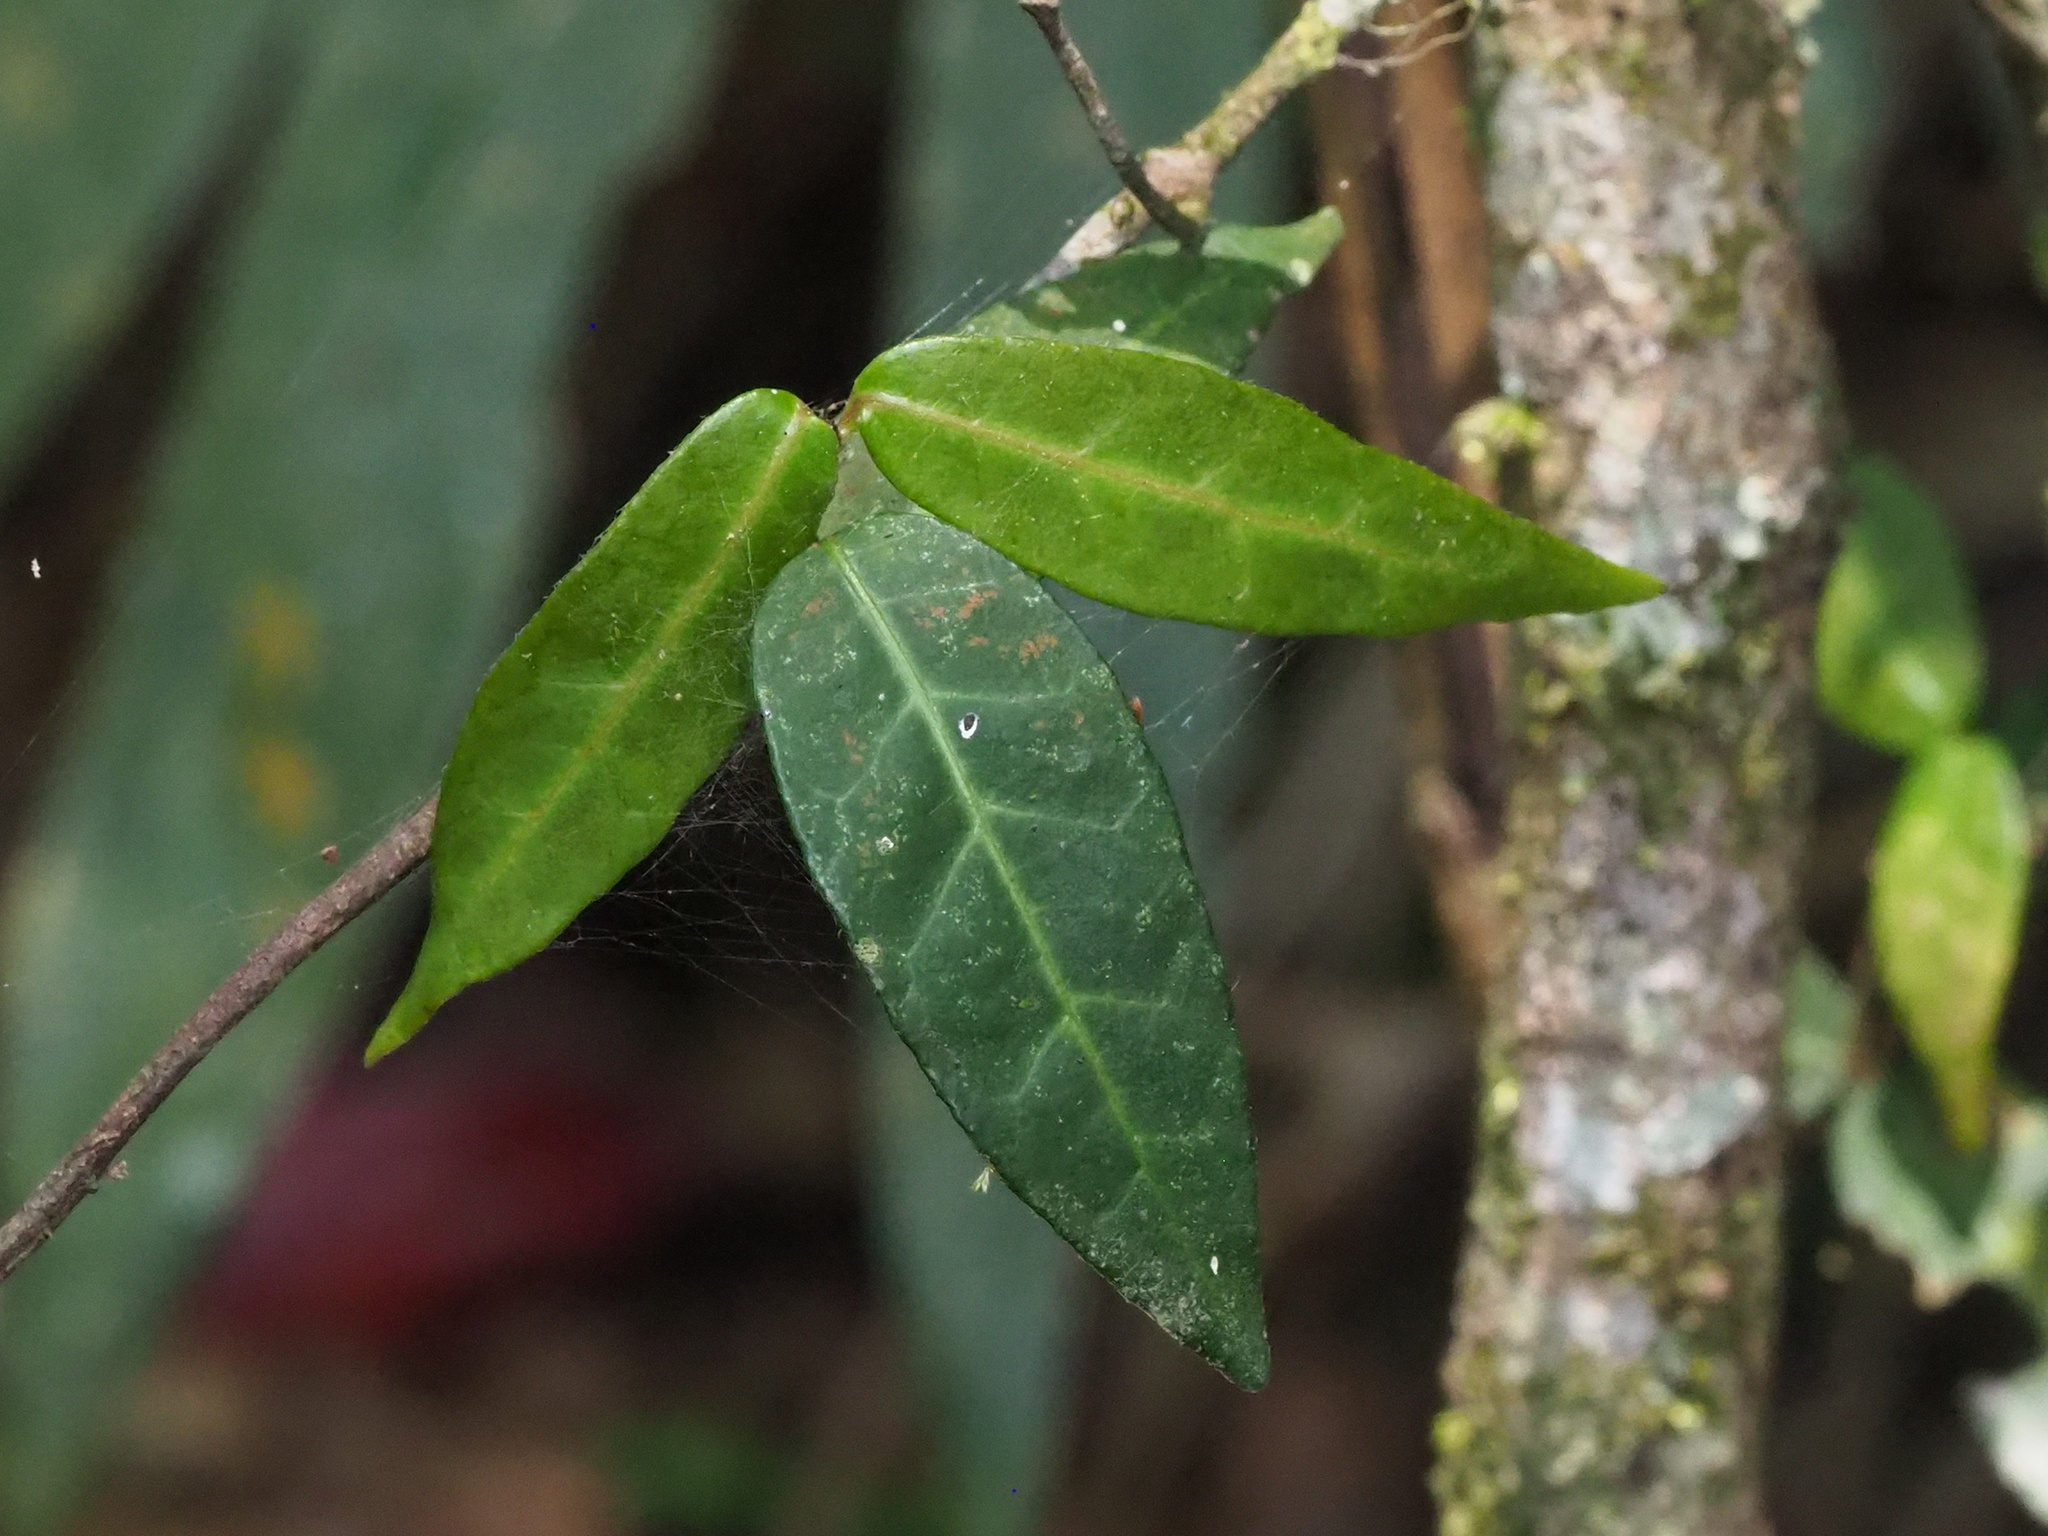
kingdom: Plantae
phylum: Tracheophyta
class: Magnoliopsida
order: Gentianales
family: Apocynaceae
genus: Trachelospermum
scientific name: Trachelospermum asiaticum
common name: Asiatic jasmine
